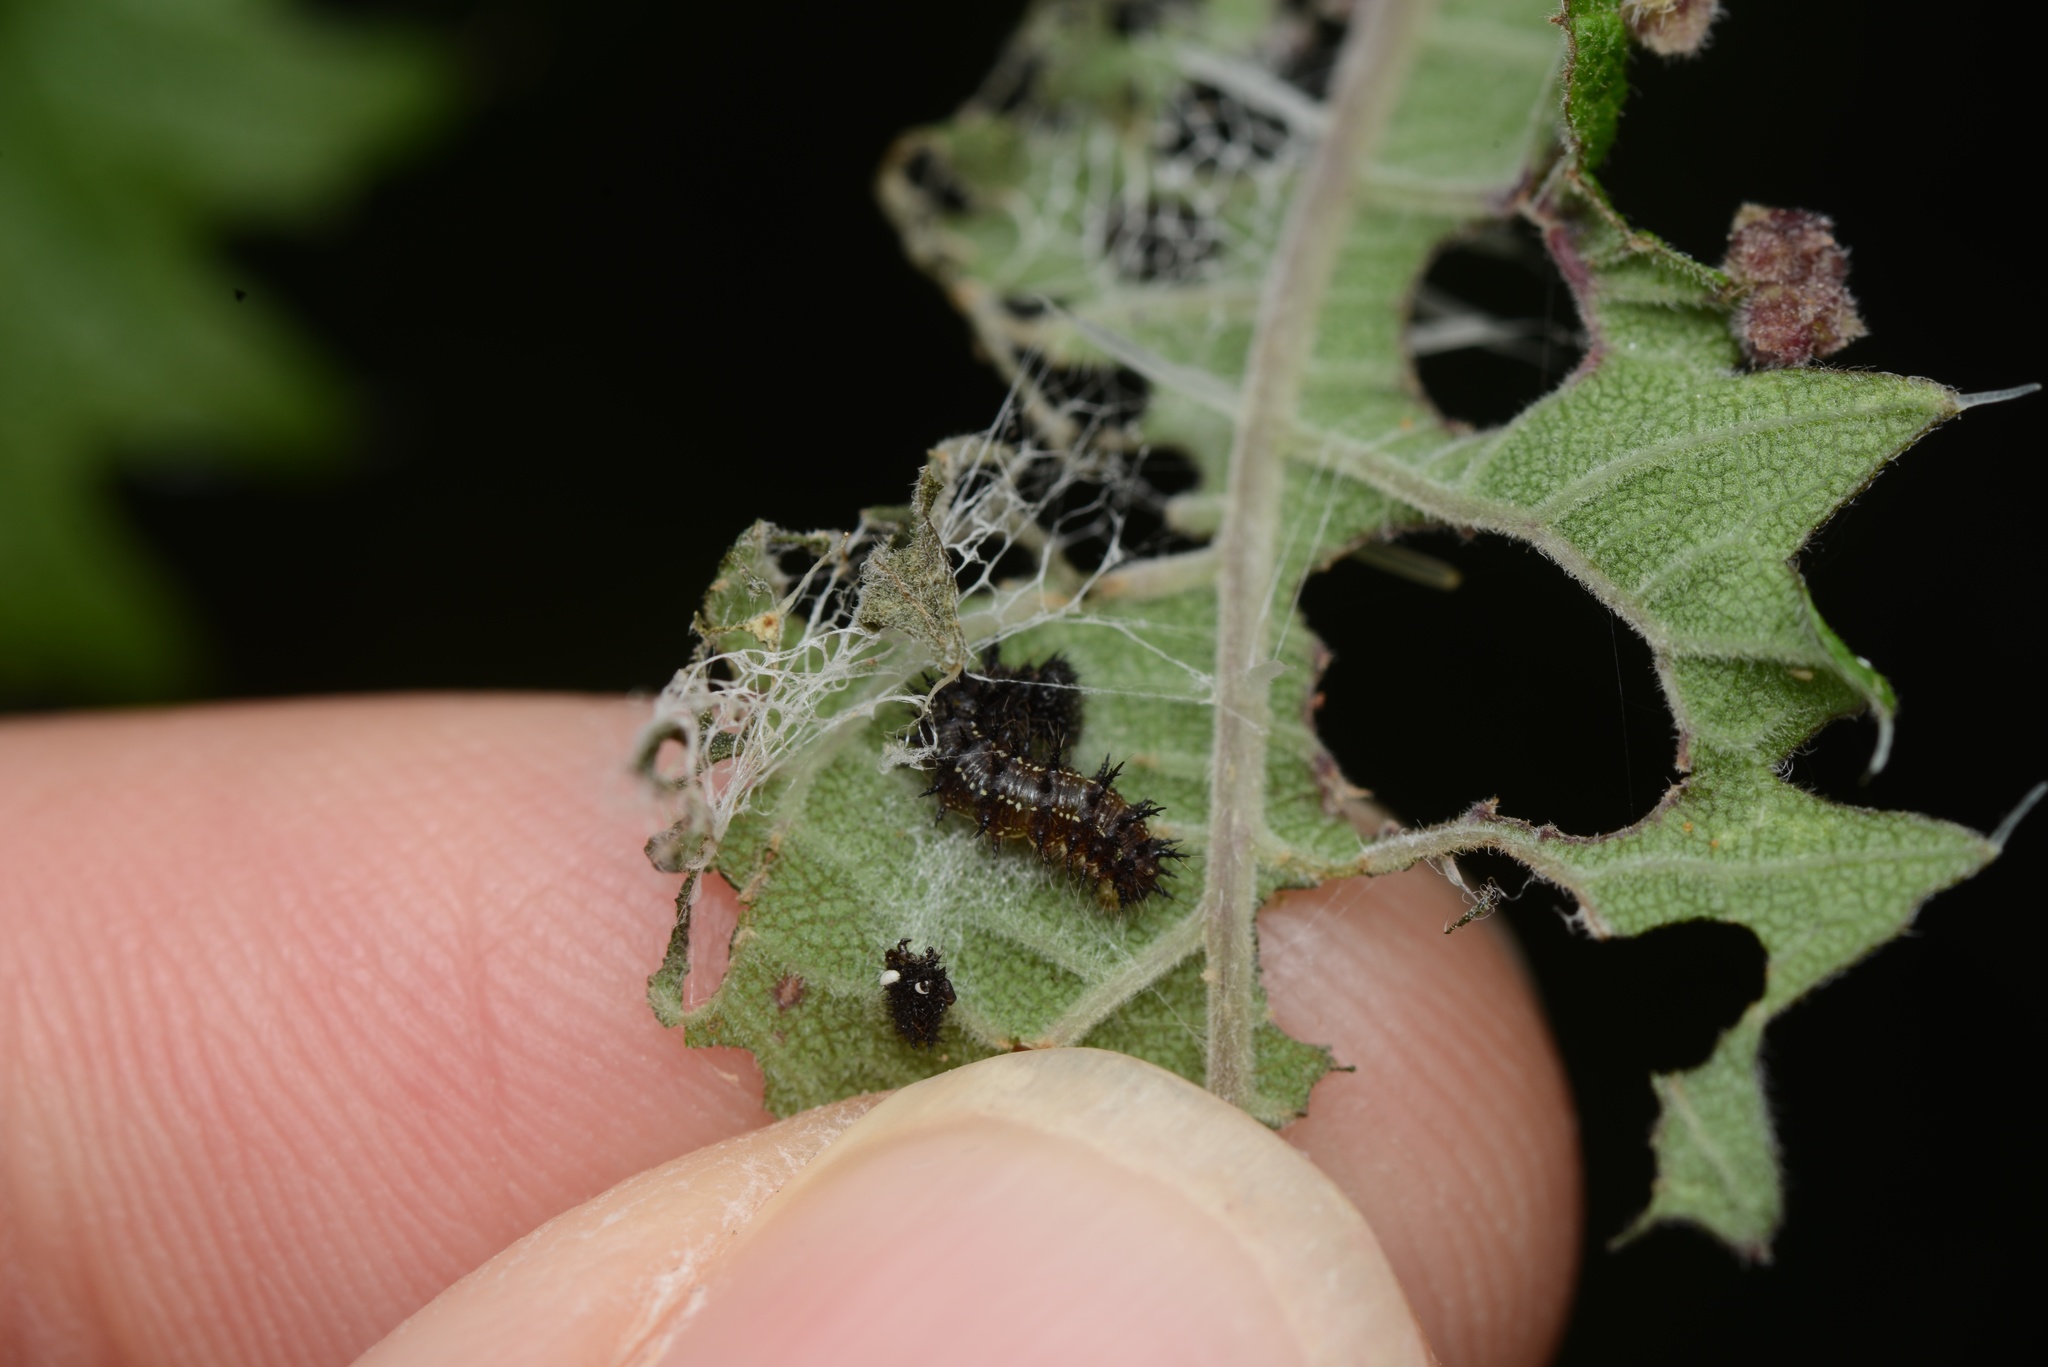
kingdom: Animalia
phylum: Arthropoda
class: Insecta
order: Lepidoptera
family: Nymphalidae
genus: Vanessa
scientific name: Vanessa gonerilla
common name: New zealand red admiral
